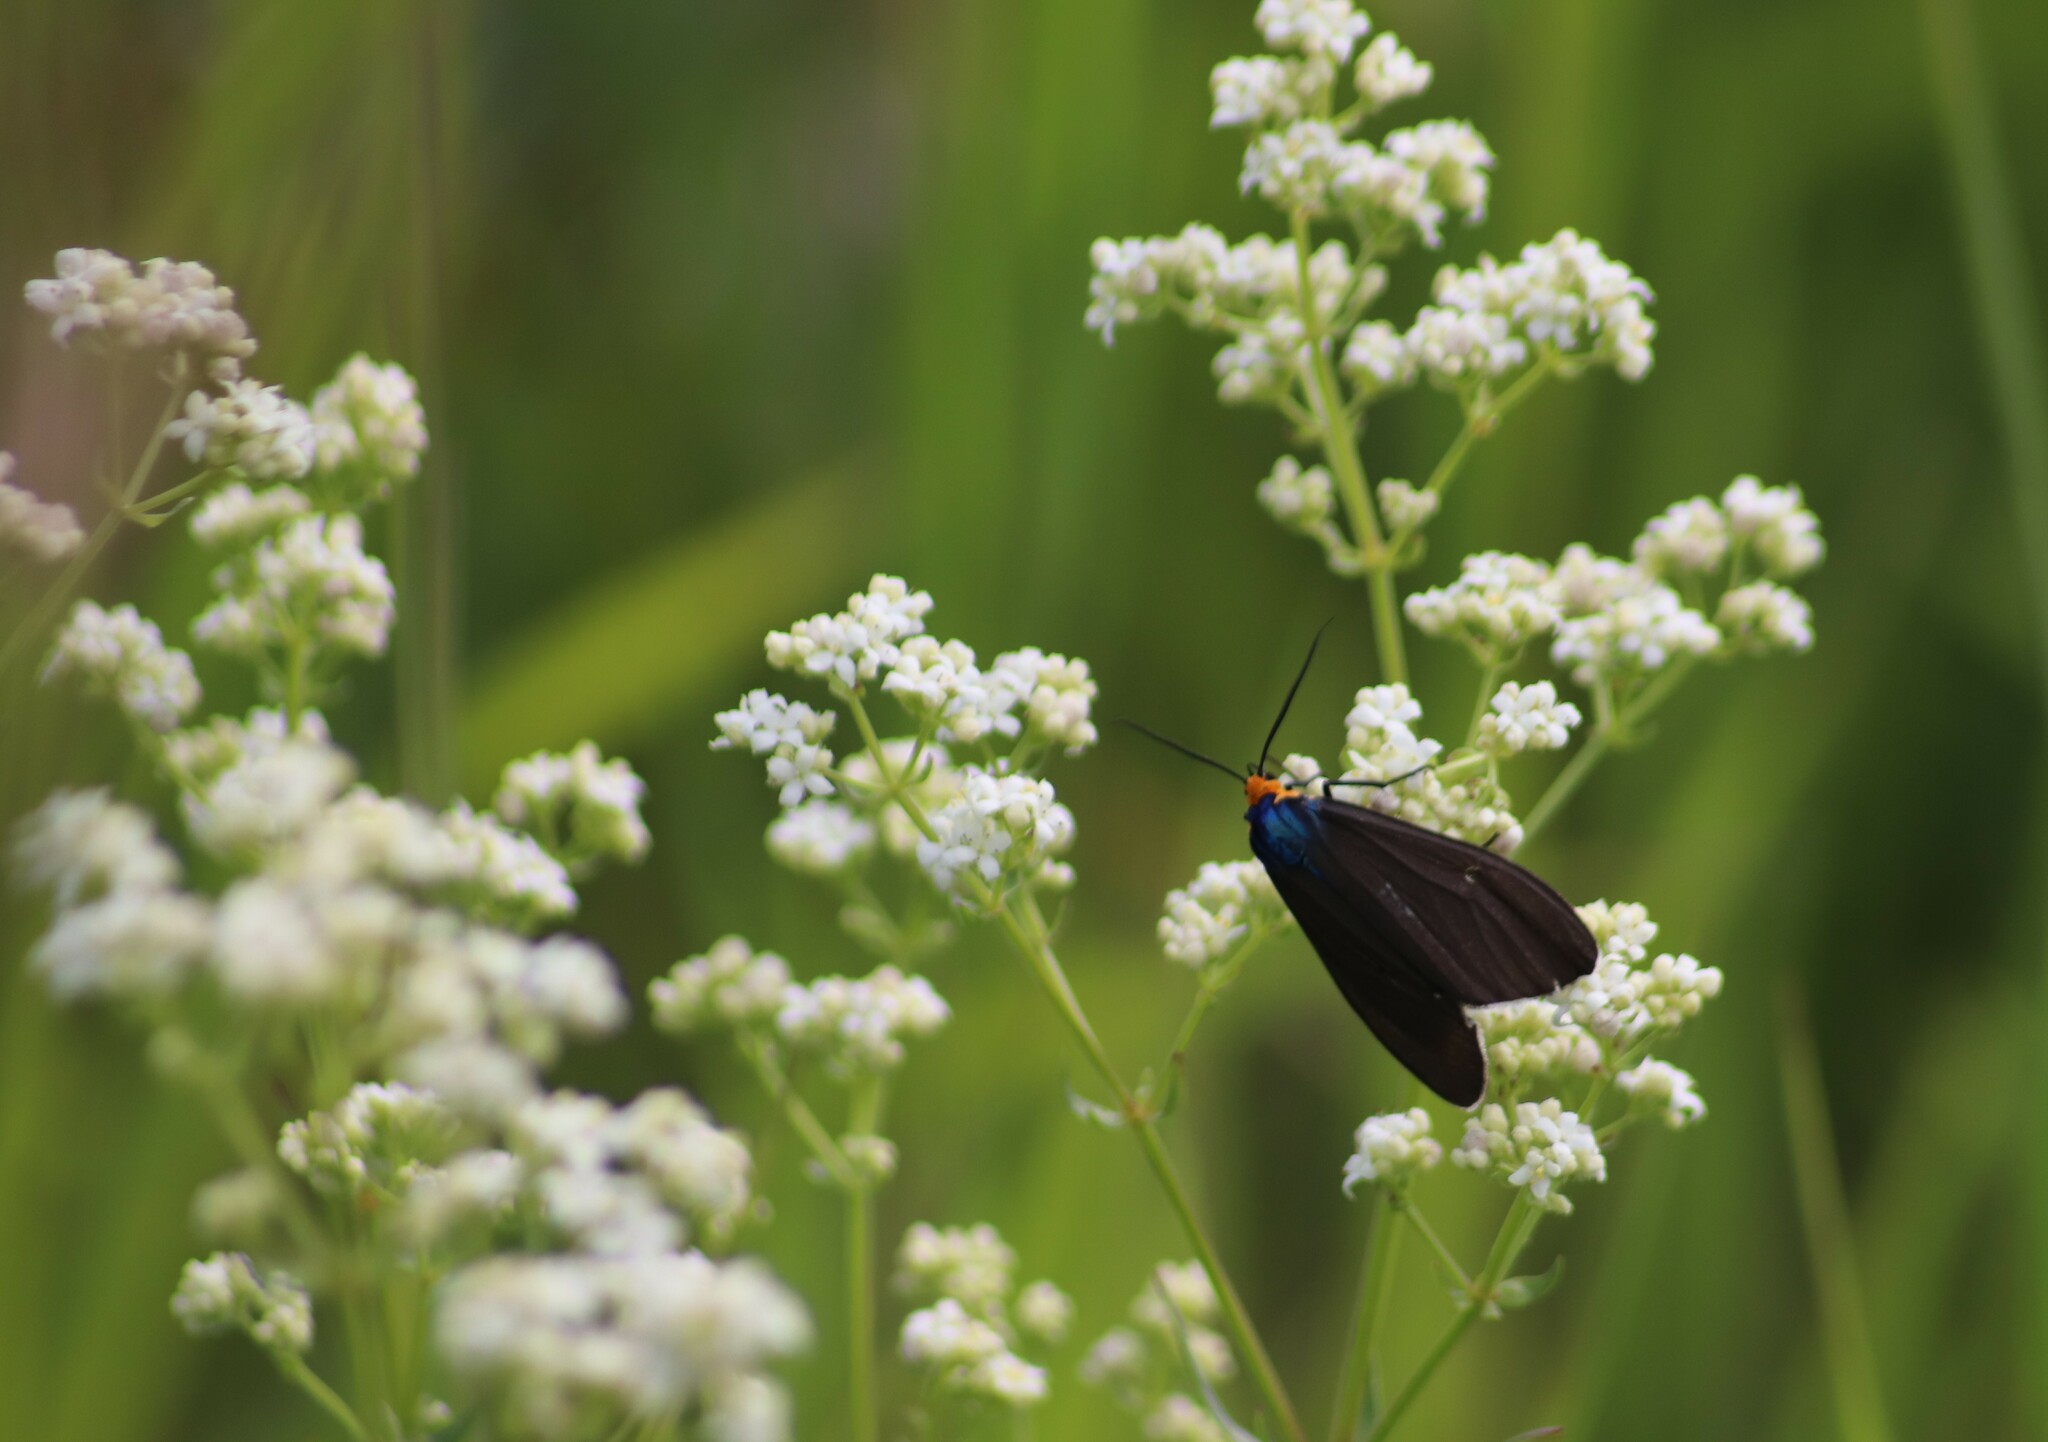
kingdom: Animalia
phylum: Arthropoda
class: Insecta
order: Lepidoptera
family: Erebidae
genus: Ctenucha
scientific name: Ctenucha virginica
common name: Virginia ctenucha moth
